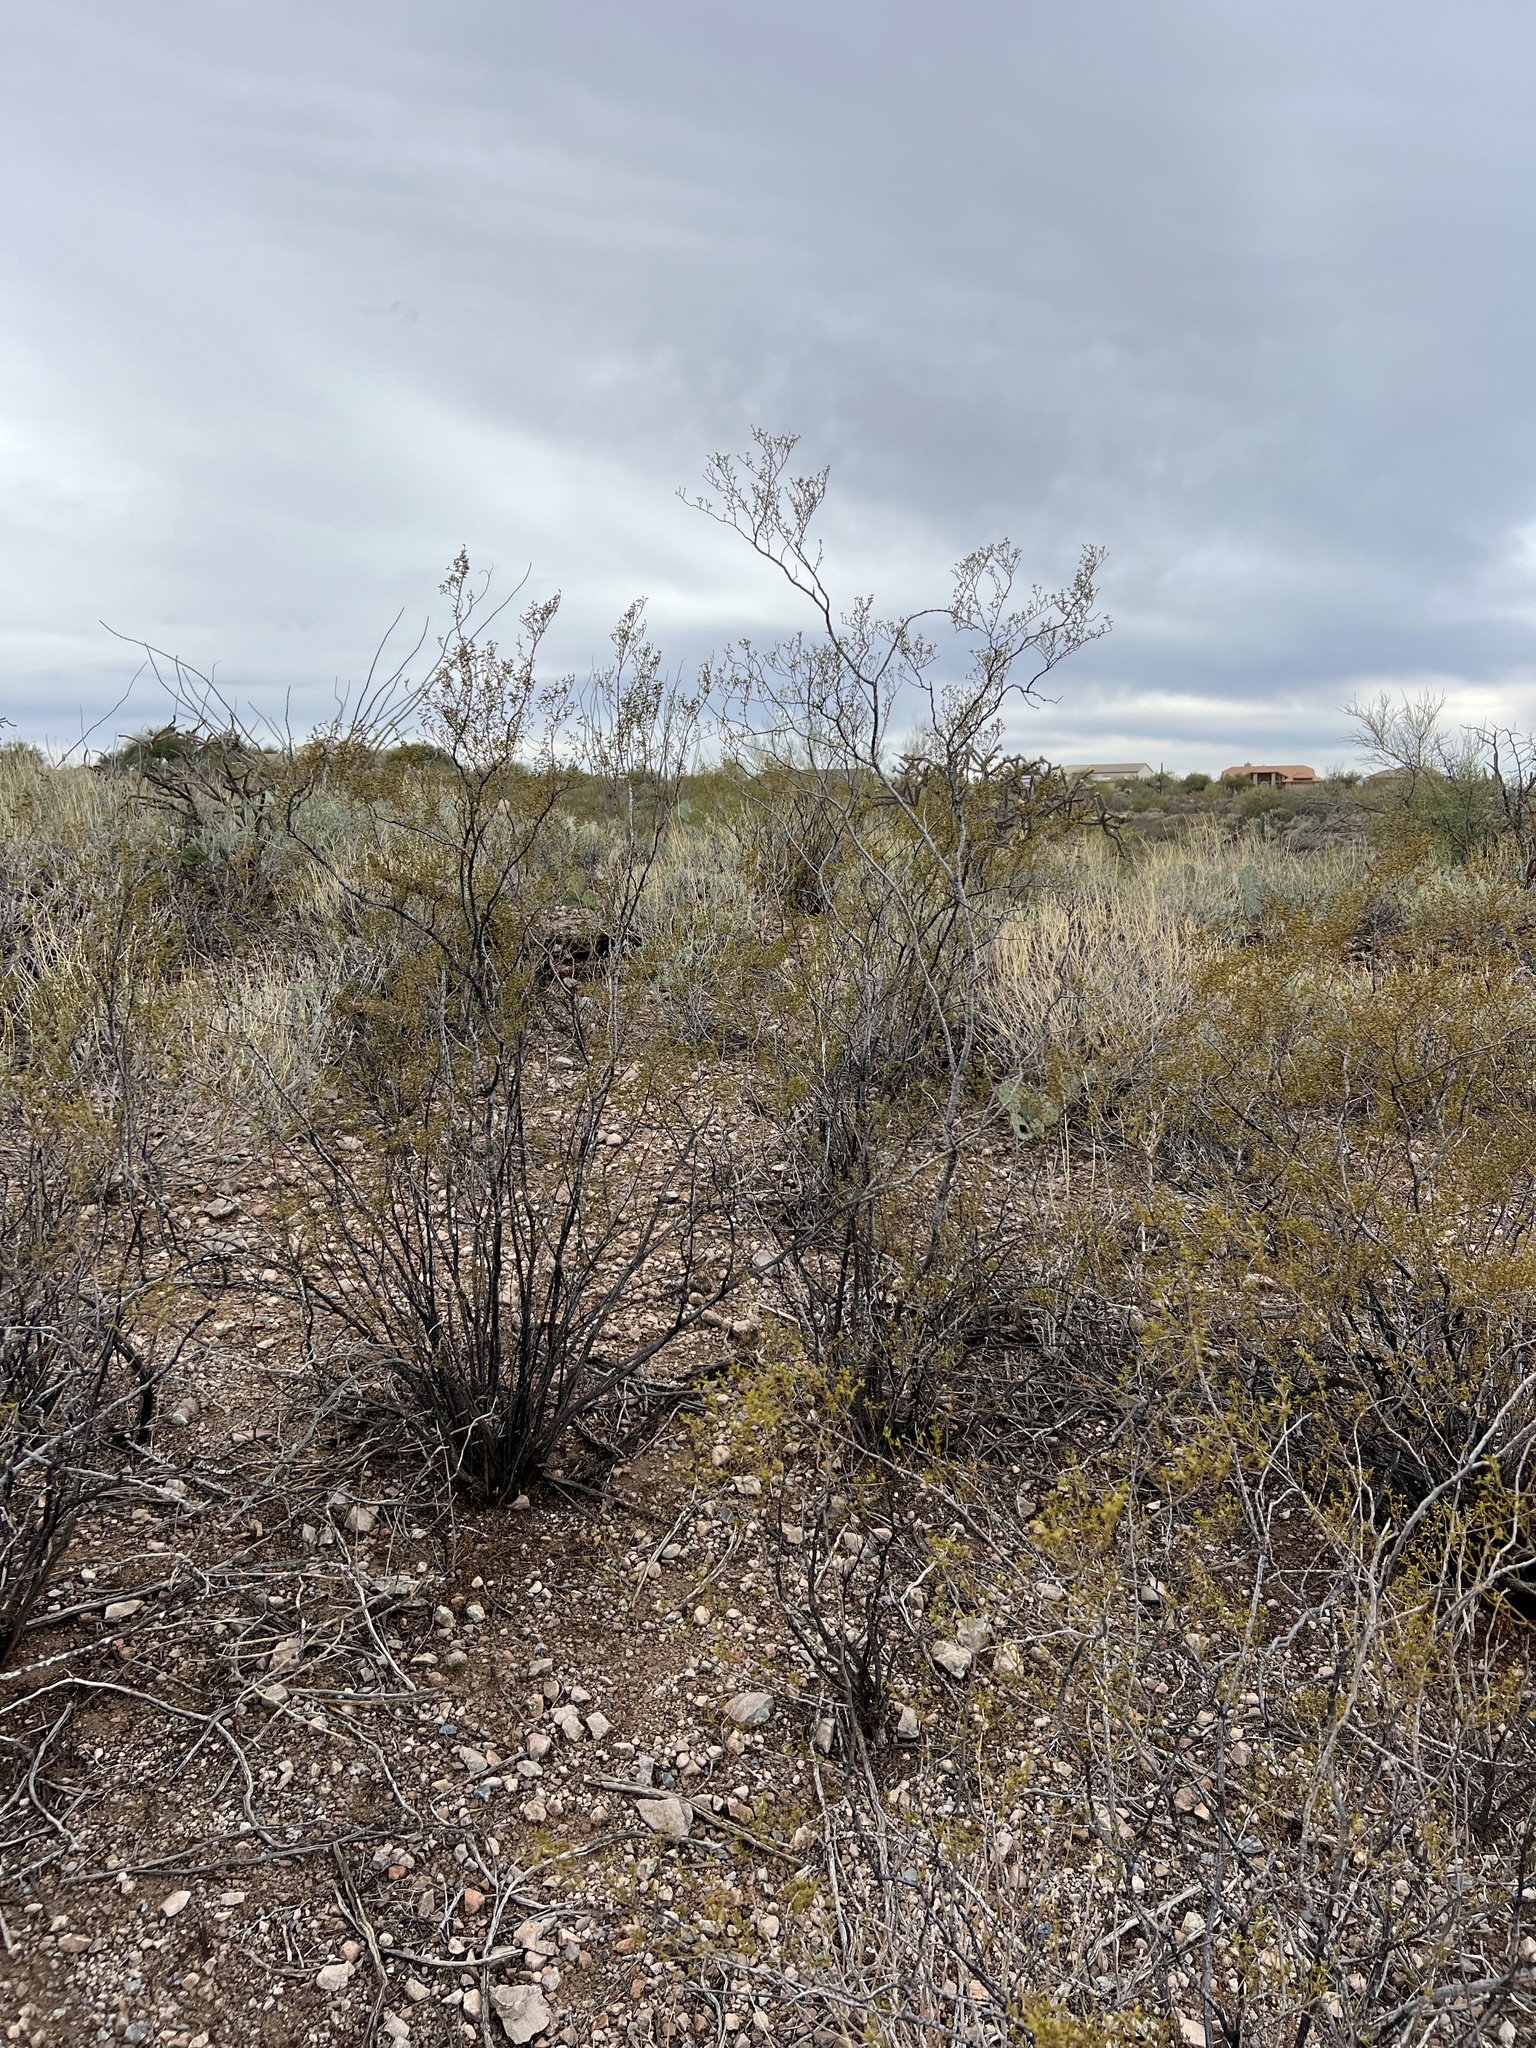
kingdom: Plantae
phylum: Tracheophyta
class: Magnoliopsida
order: Zygophyllales
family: Zygophyllaceae
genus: Larrea
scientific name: Larrea tridentata
